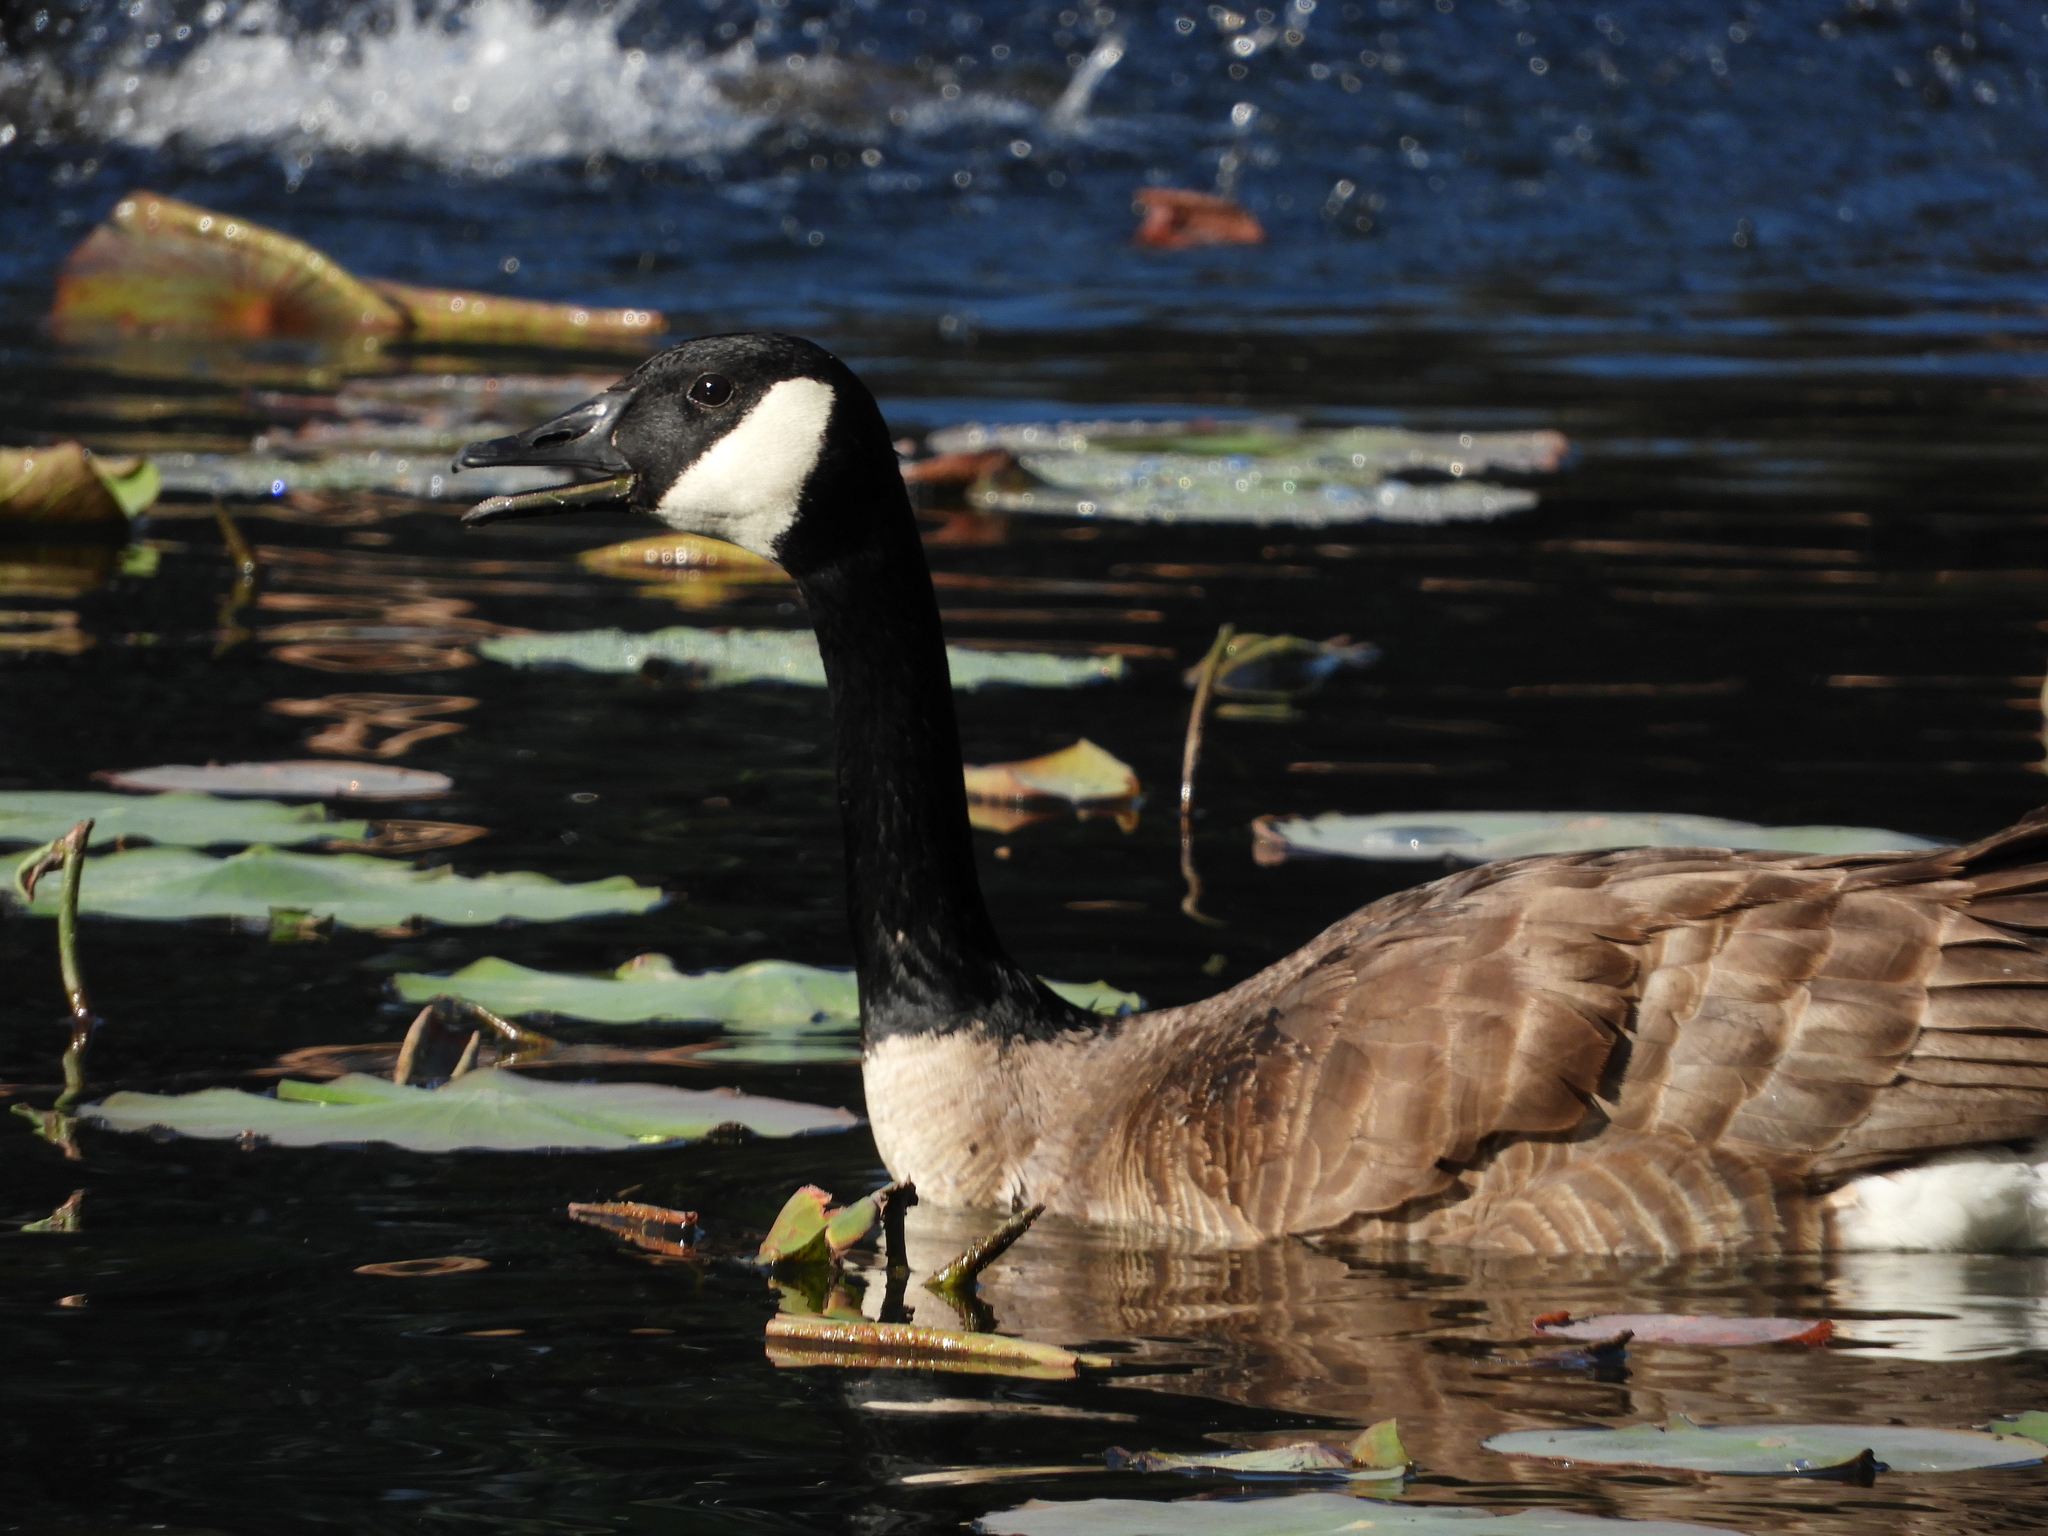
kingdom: Animalia
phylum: Chordata
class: Aves
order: Anseriformes
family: Anatidae
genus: Branta
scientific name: Branta canadensis
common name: Canada goose
